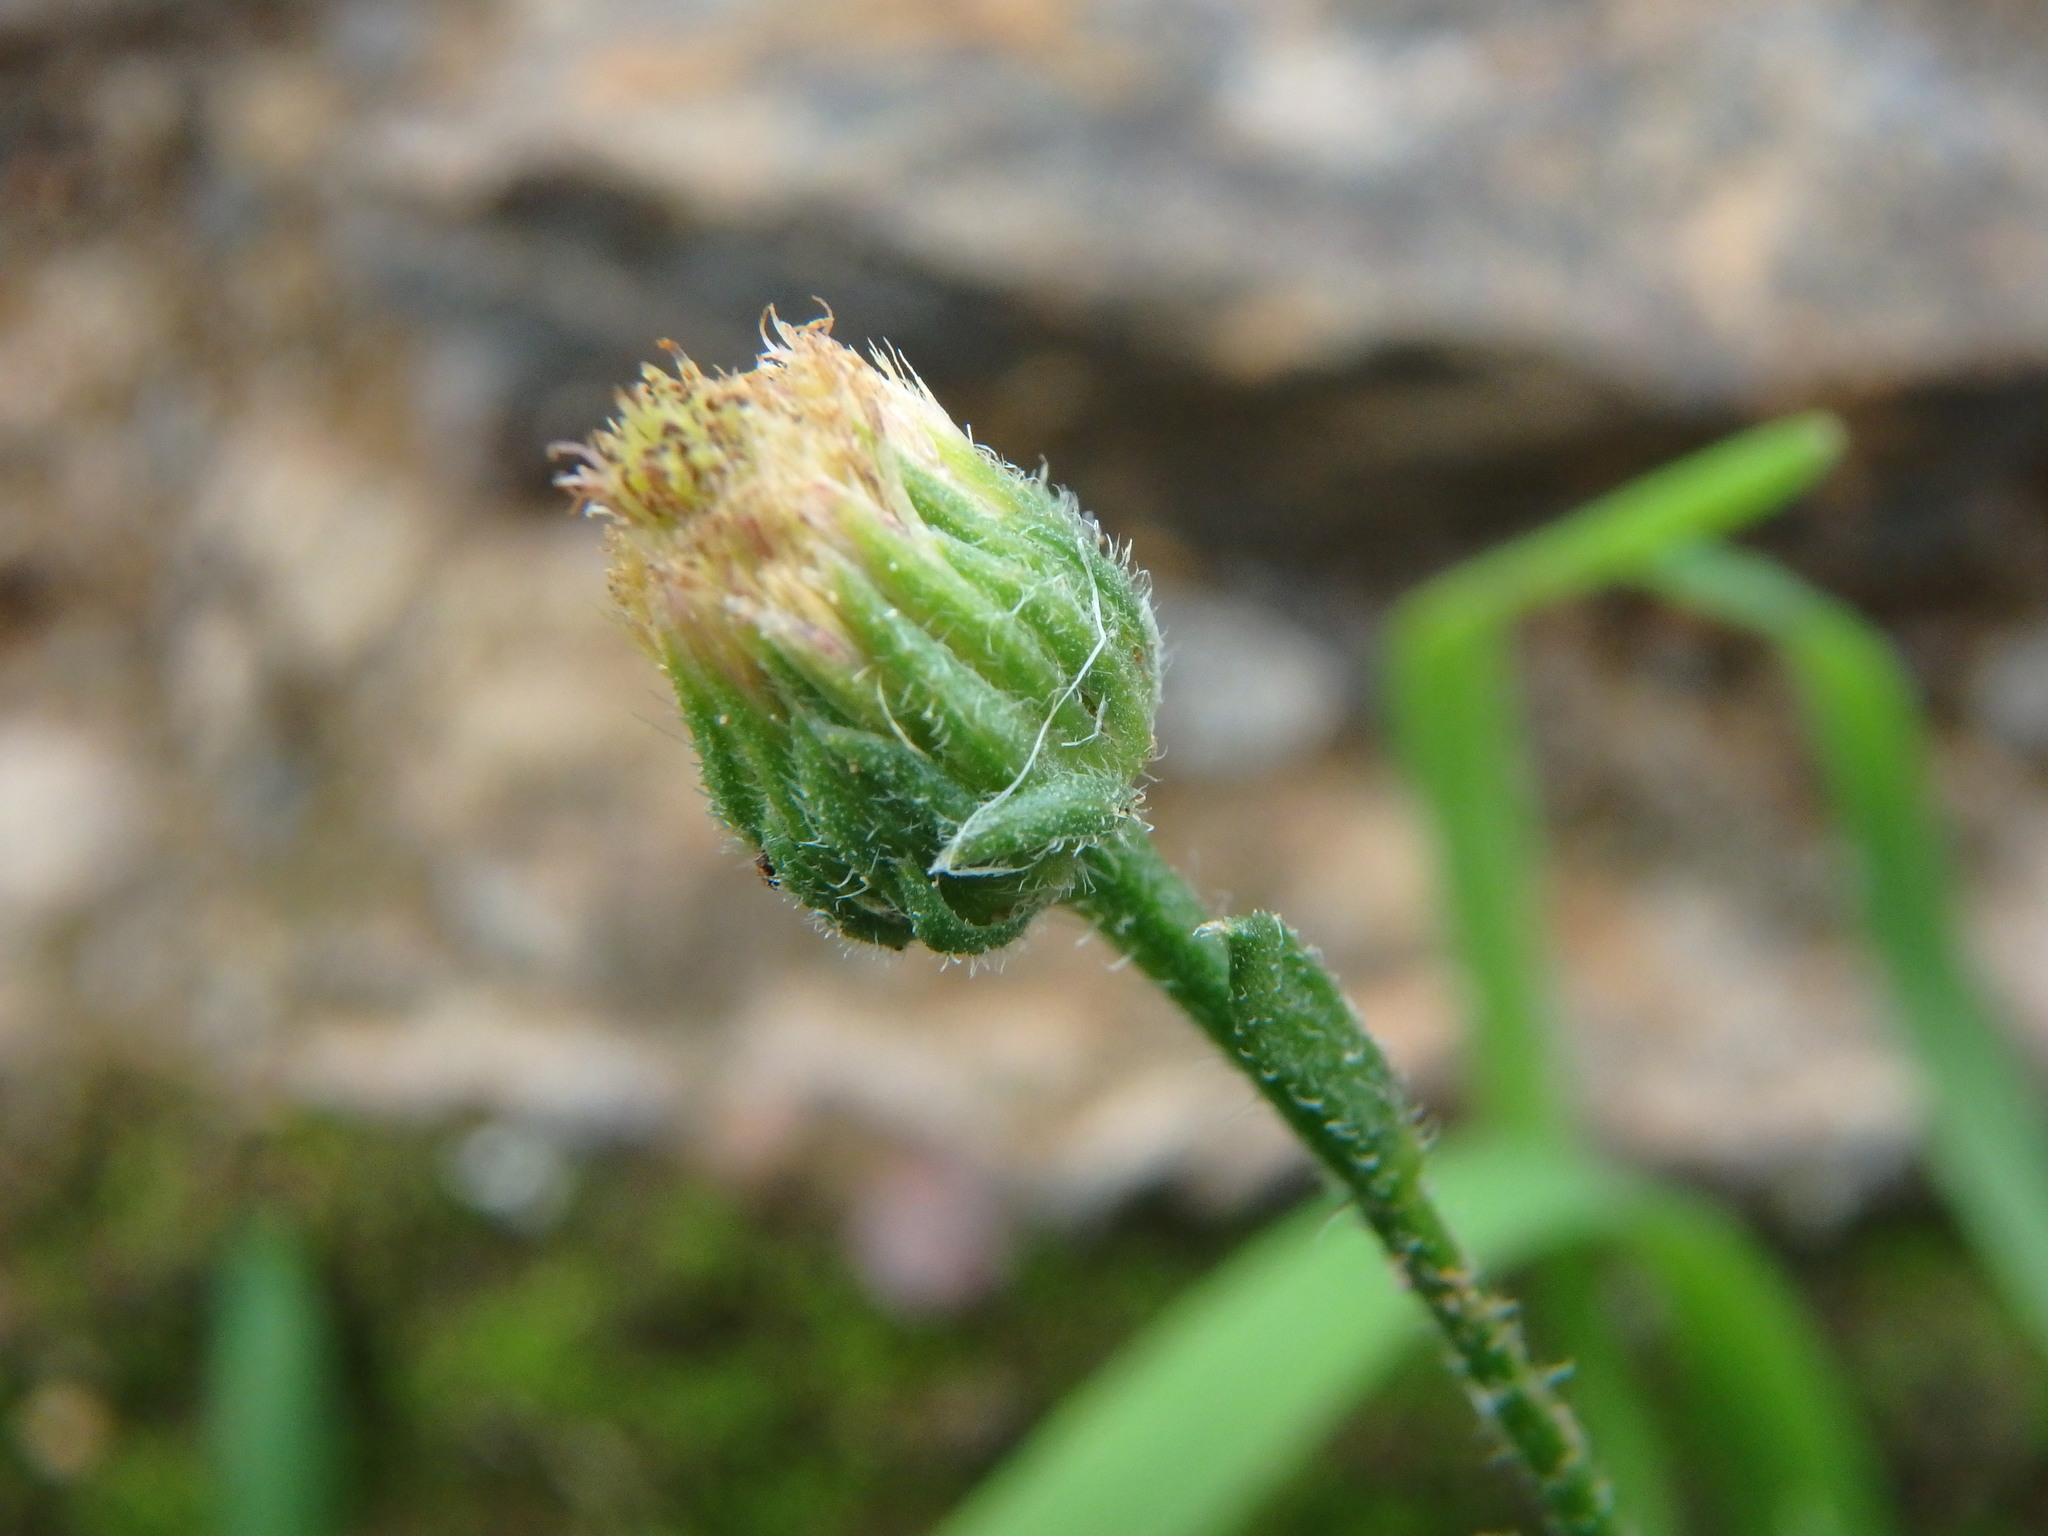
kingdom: Plantae
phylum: Tracheophyta
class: Magnoliopsida
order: Asterales
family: Asteraceae
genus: Erigeron
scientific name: Erigeron bonariensis
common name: Argentine fleabane
